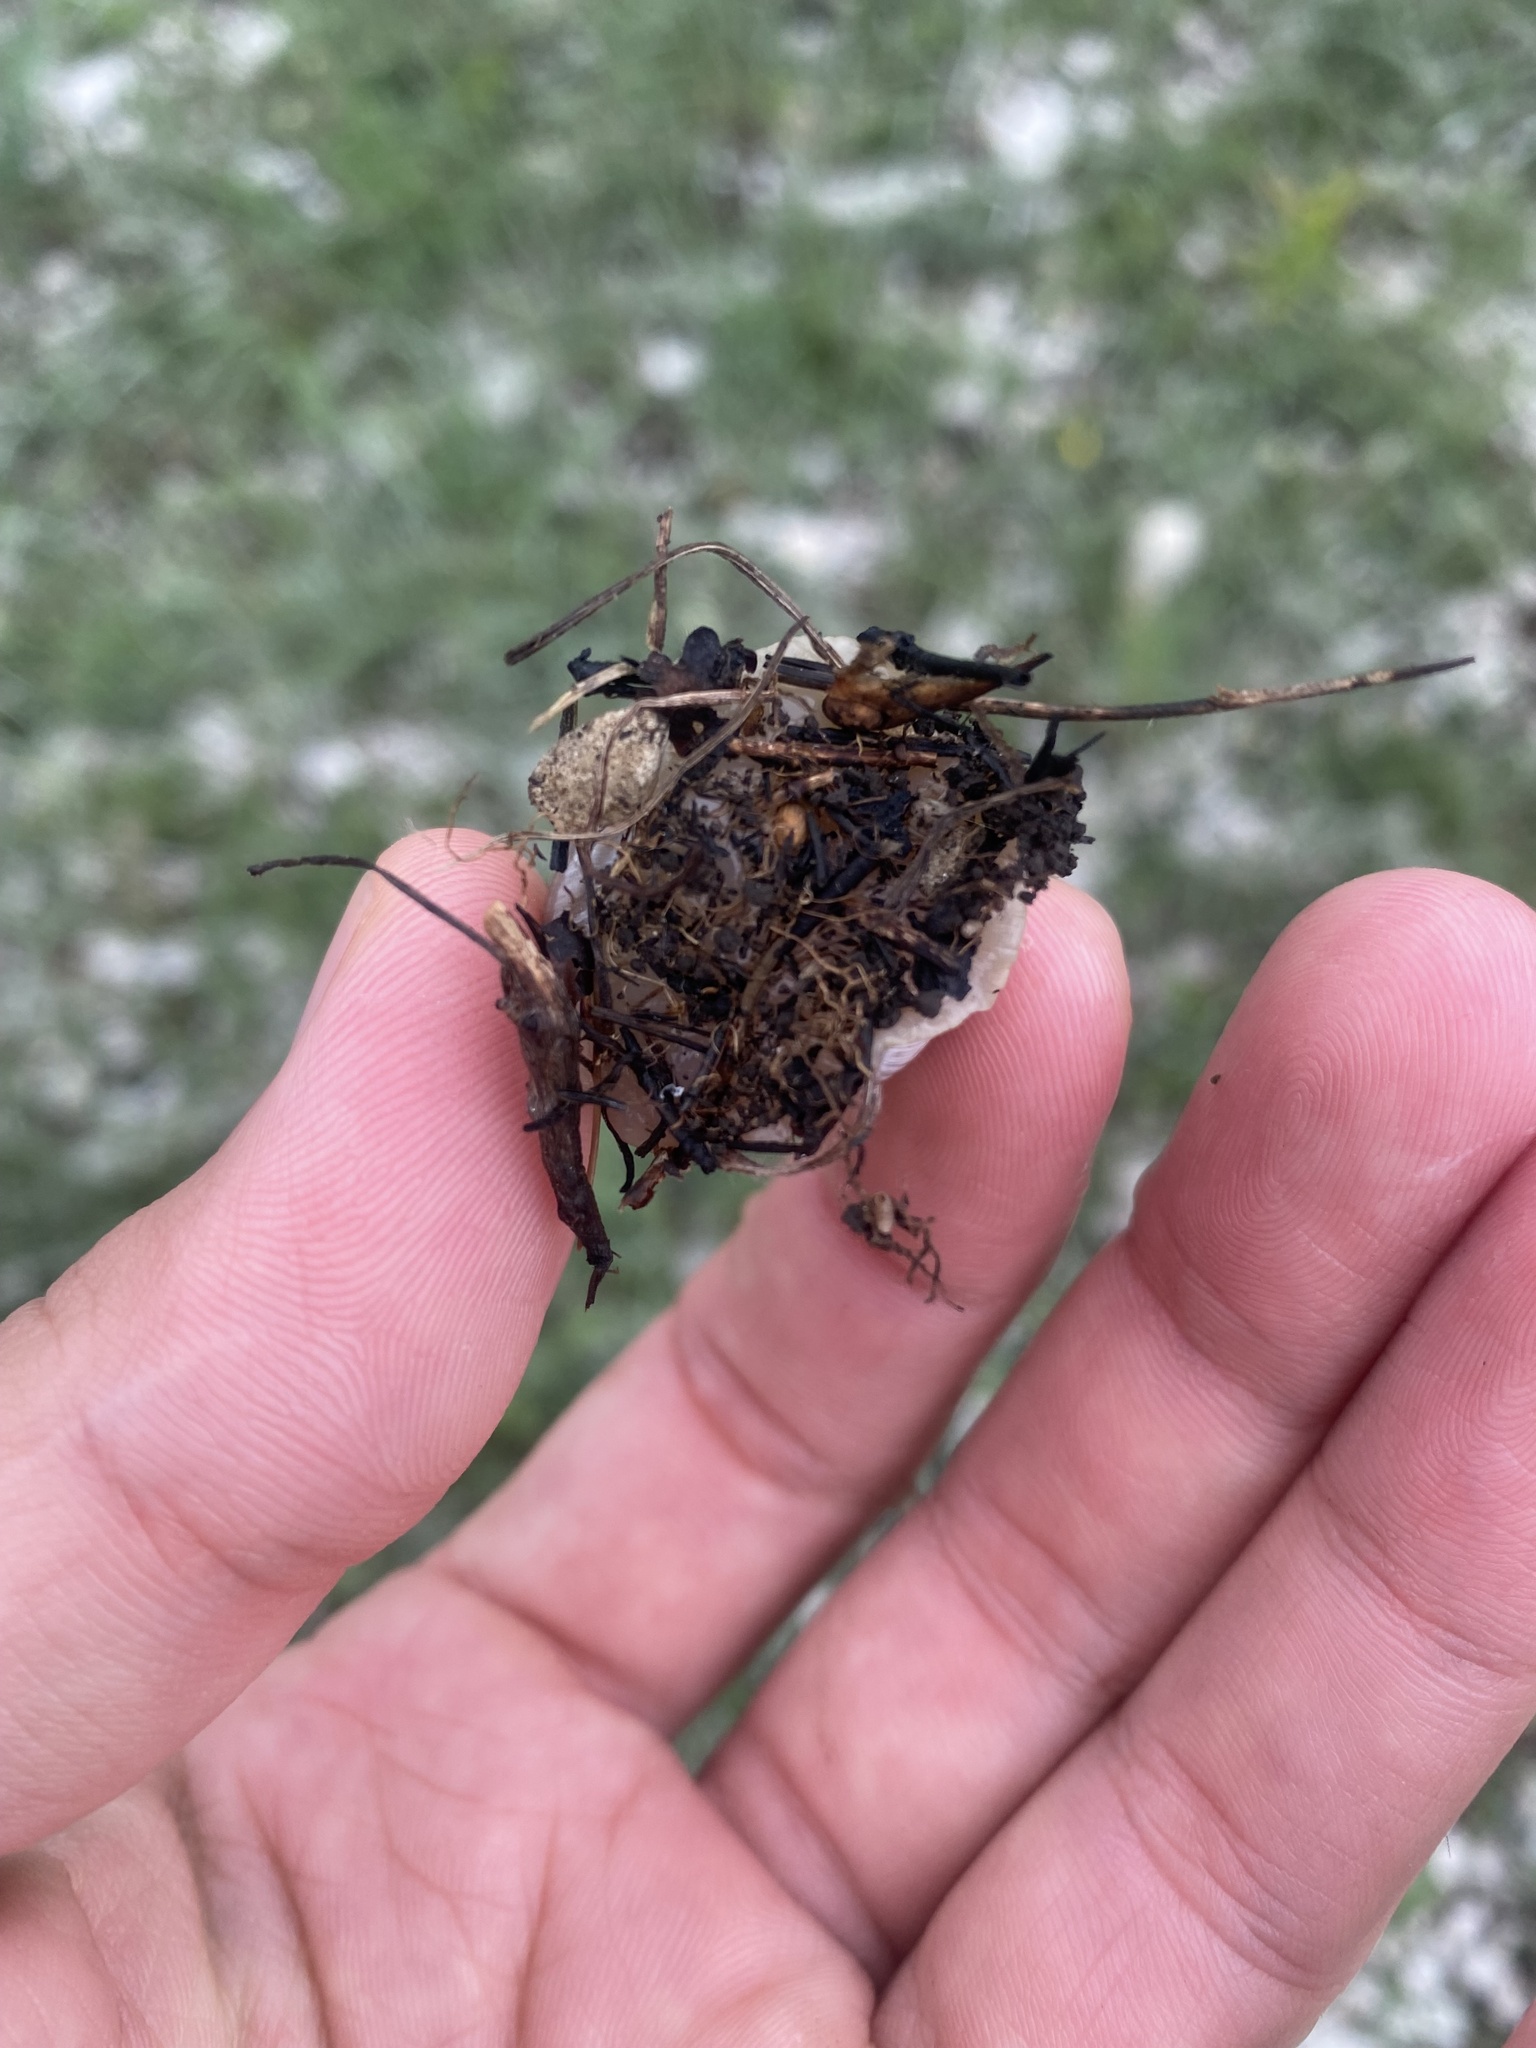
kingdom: Animalia
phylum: Mollusca
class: Gastropoda
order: Stylommatophora
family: Helicidae
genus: Helix
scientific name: Helix albescens
